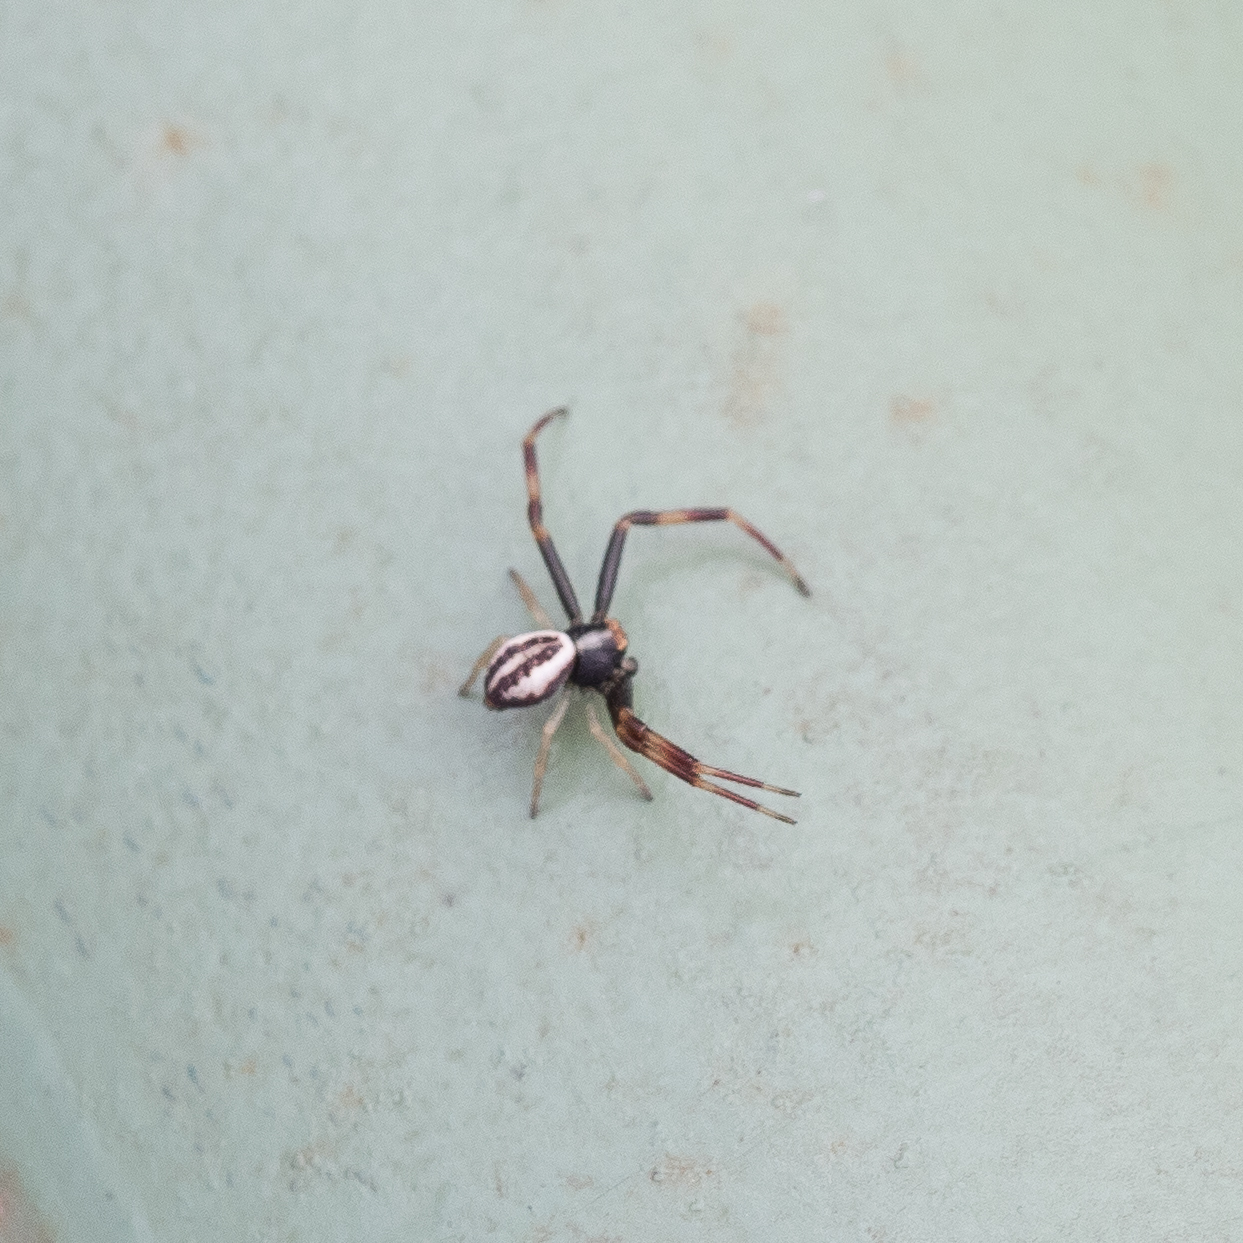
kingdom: Animalia
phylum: Arthropoda
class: Arachnida
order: Araneae
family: Thomisidae
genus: Misumena
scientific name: Misumena vatia
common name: Goldenrod crab spider
